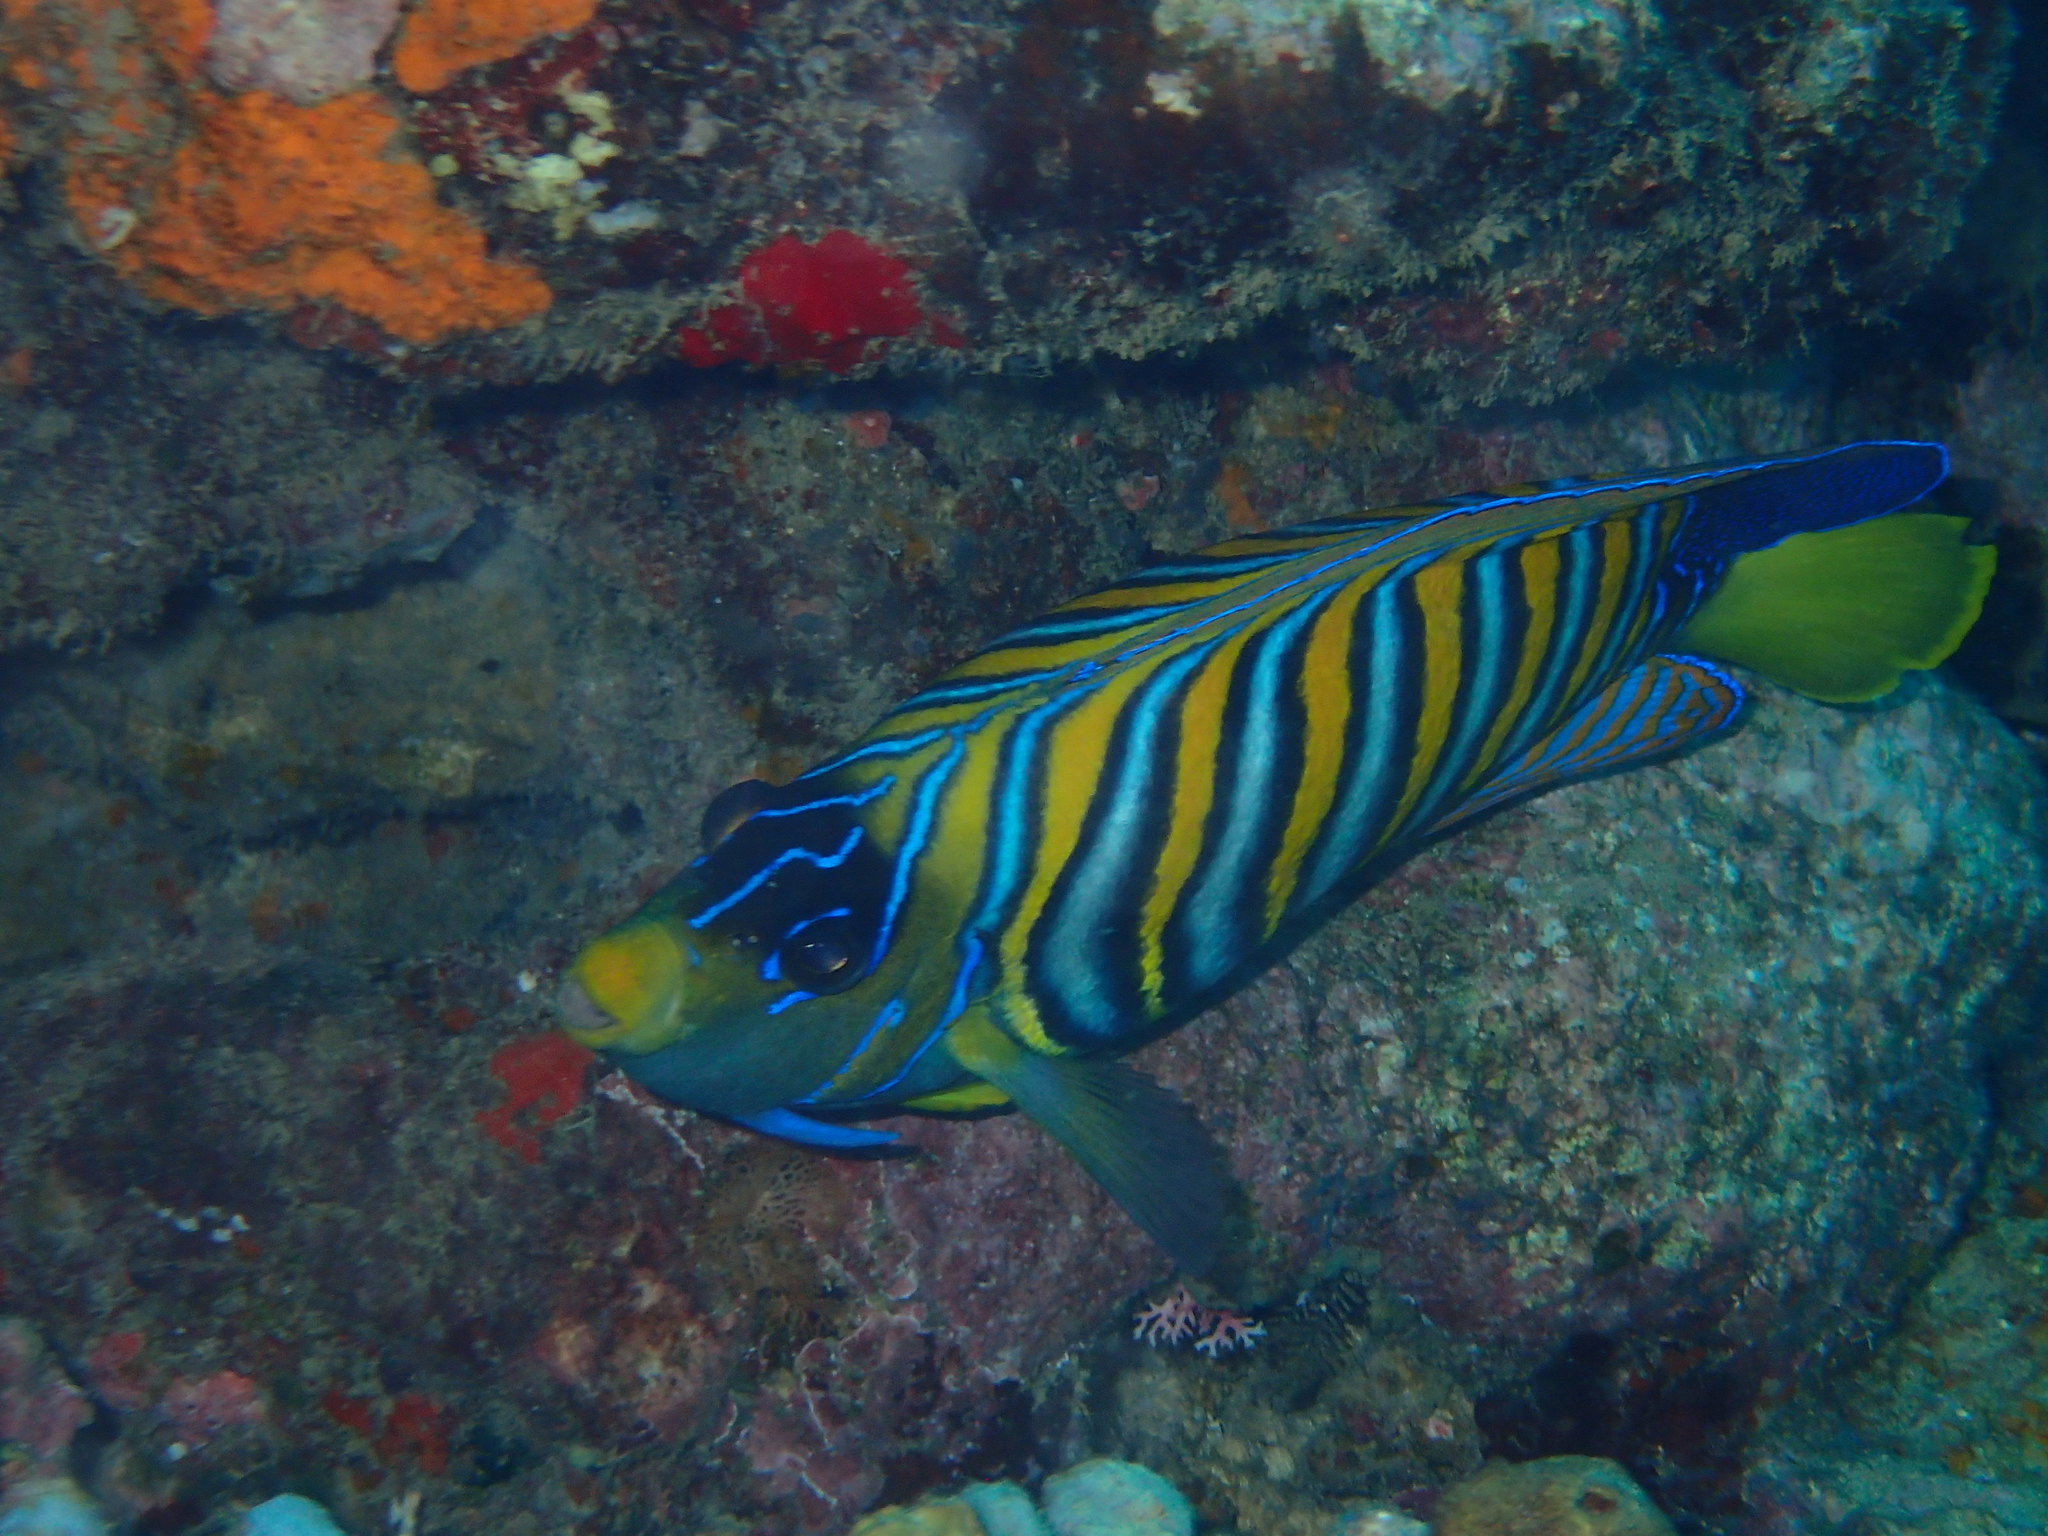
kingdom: Animalia
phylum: Chordata
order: Perciformes
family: Pomacanthidae
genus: Pygoplites
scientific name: Pygoplites diacanthus
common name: Regal angelfish
